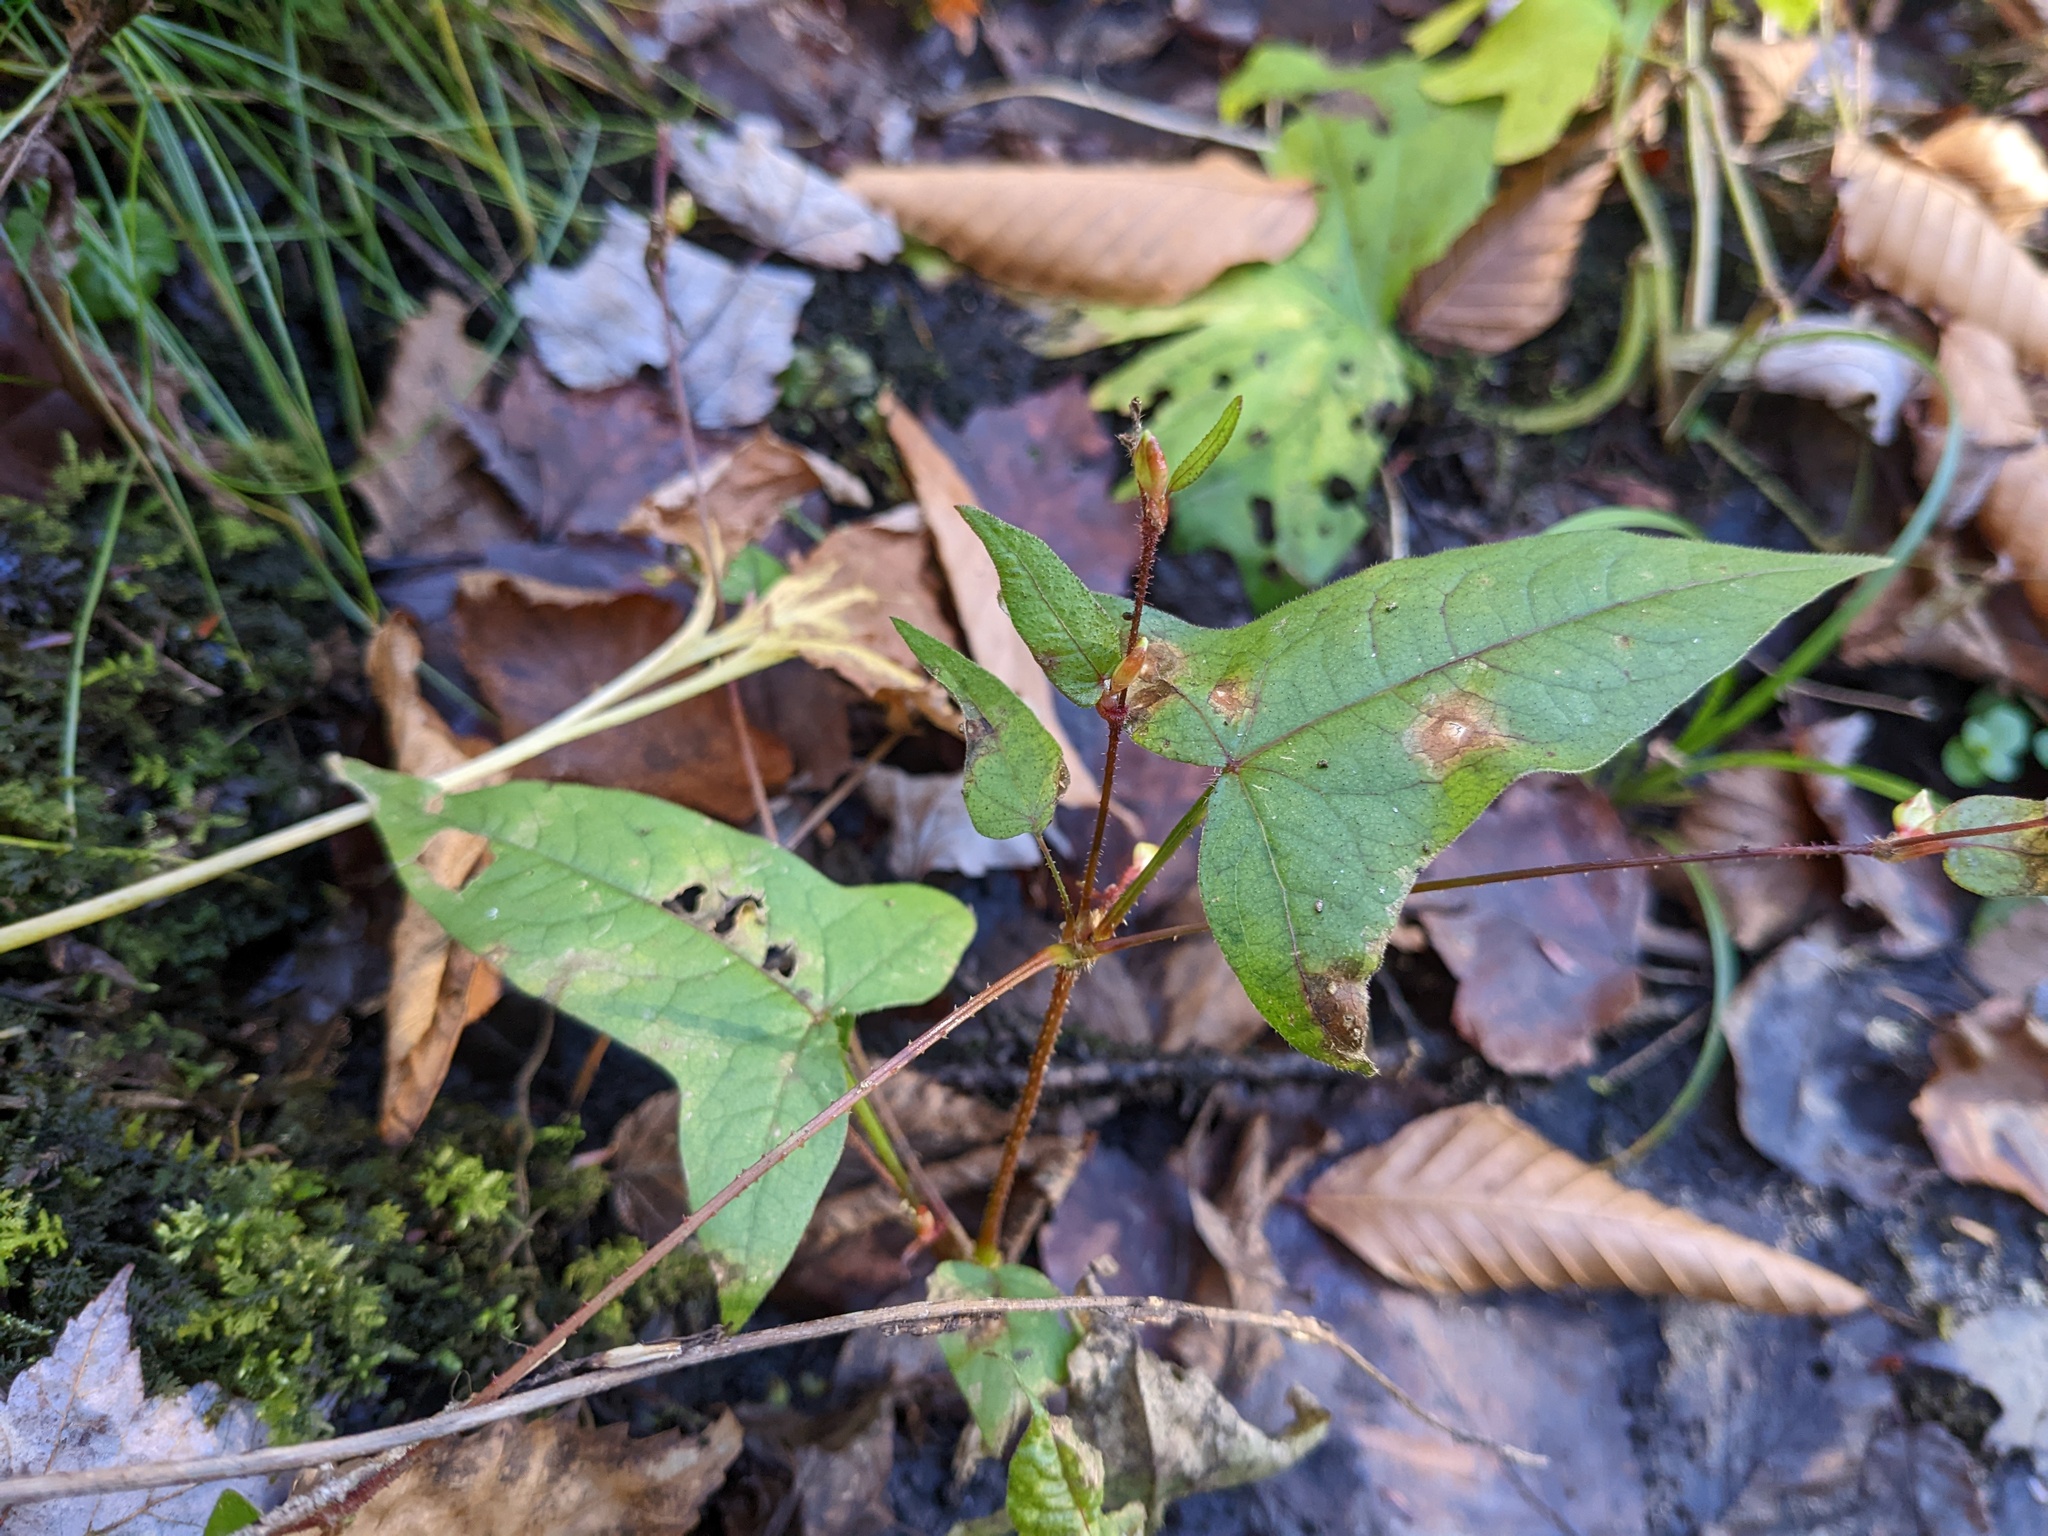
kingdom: Plantae
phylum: Tracheophyta
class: Magnoliopsida
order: Caryophyllales
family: Polygonaceae
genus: Persicaria
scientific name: Persicaria arifolia
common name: Halberd-leaved tear-thumb
